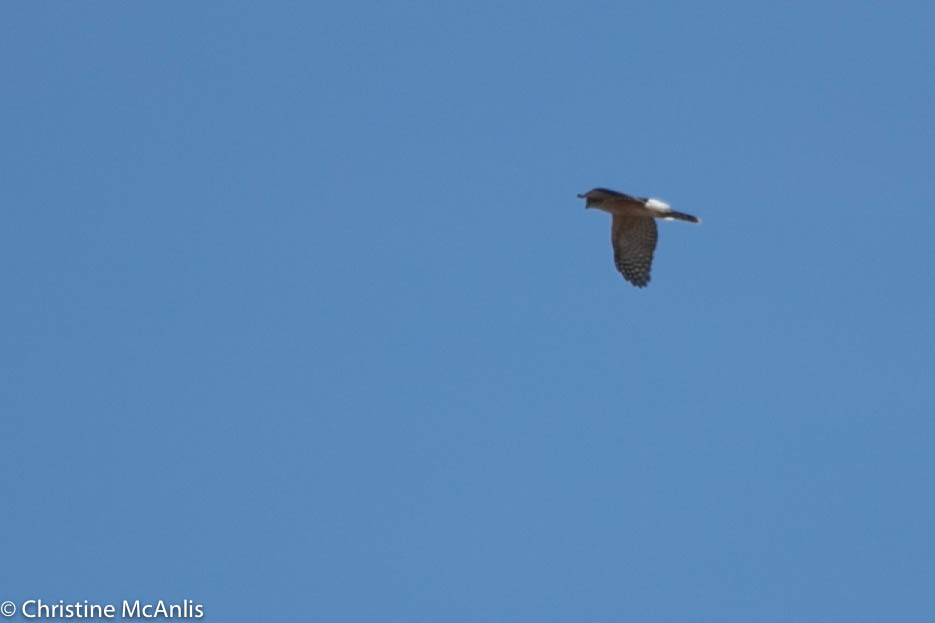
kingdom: Animalia
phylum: Chordata
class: Aves
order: Accipitriformes
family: Accipitridae
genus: Accipiter
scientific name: Accipiter cooperii
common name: Cooper's hawk
